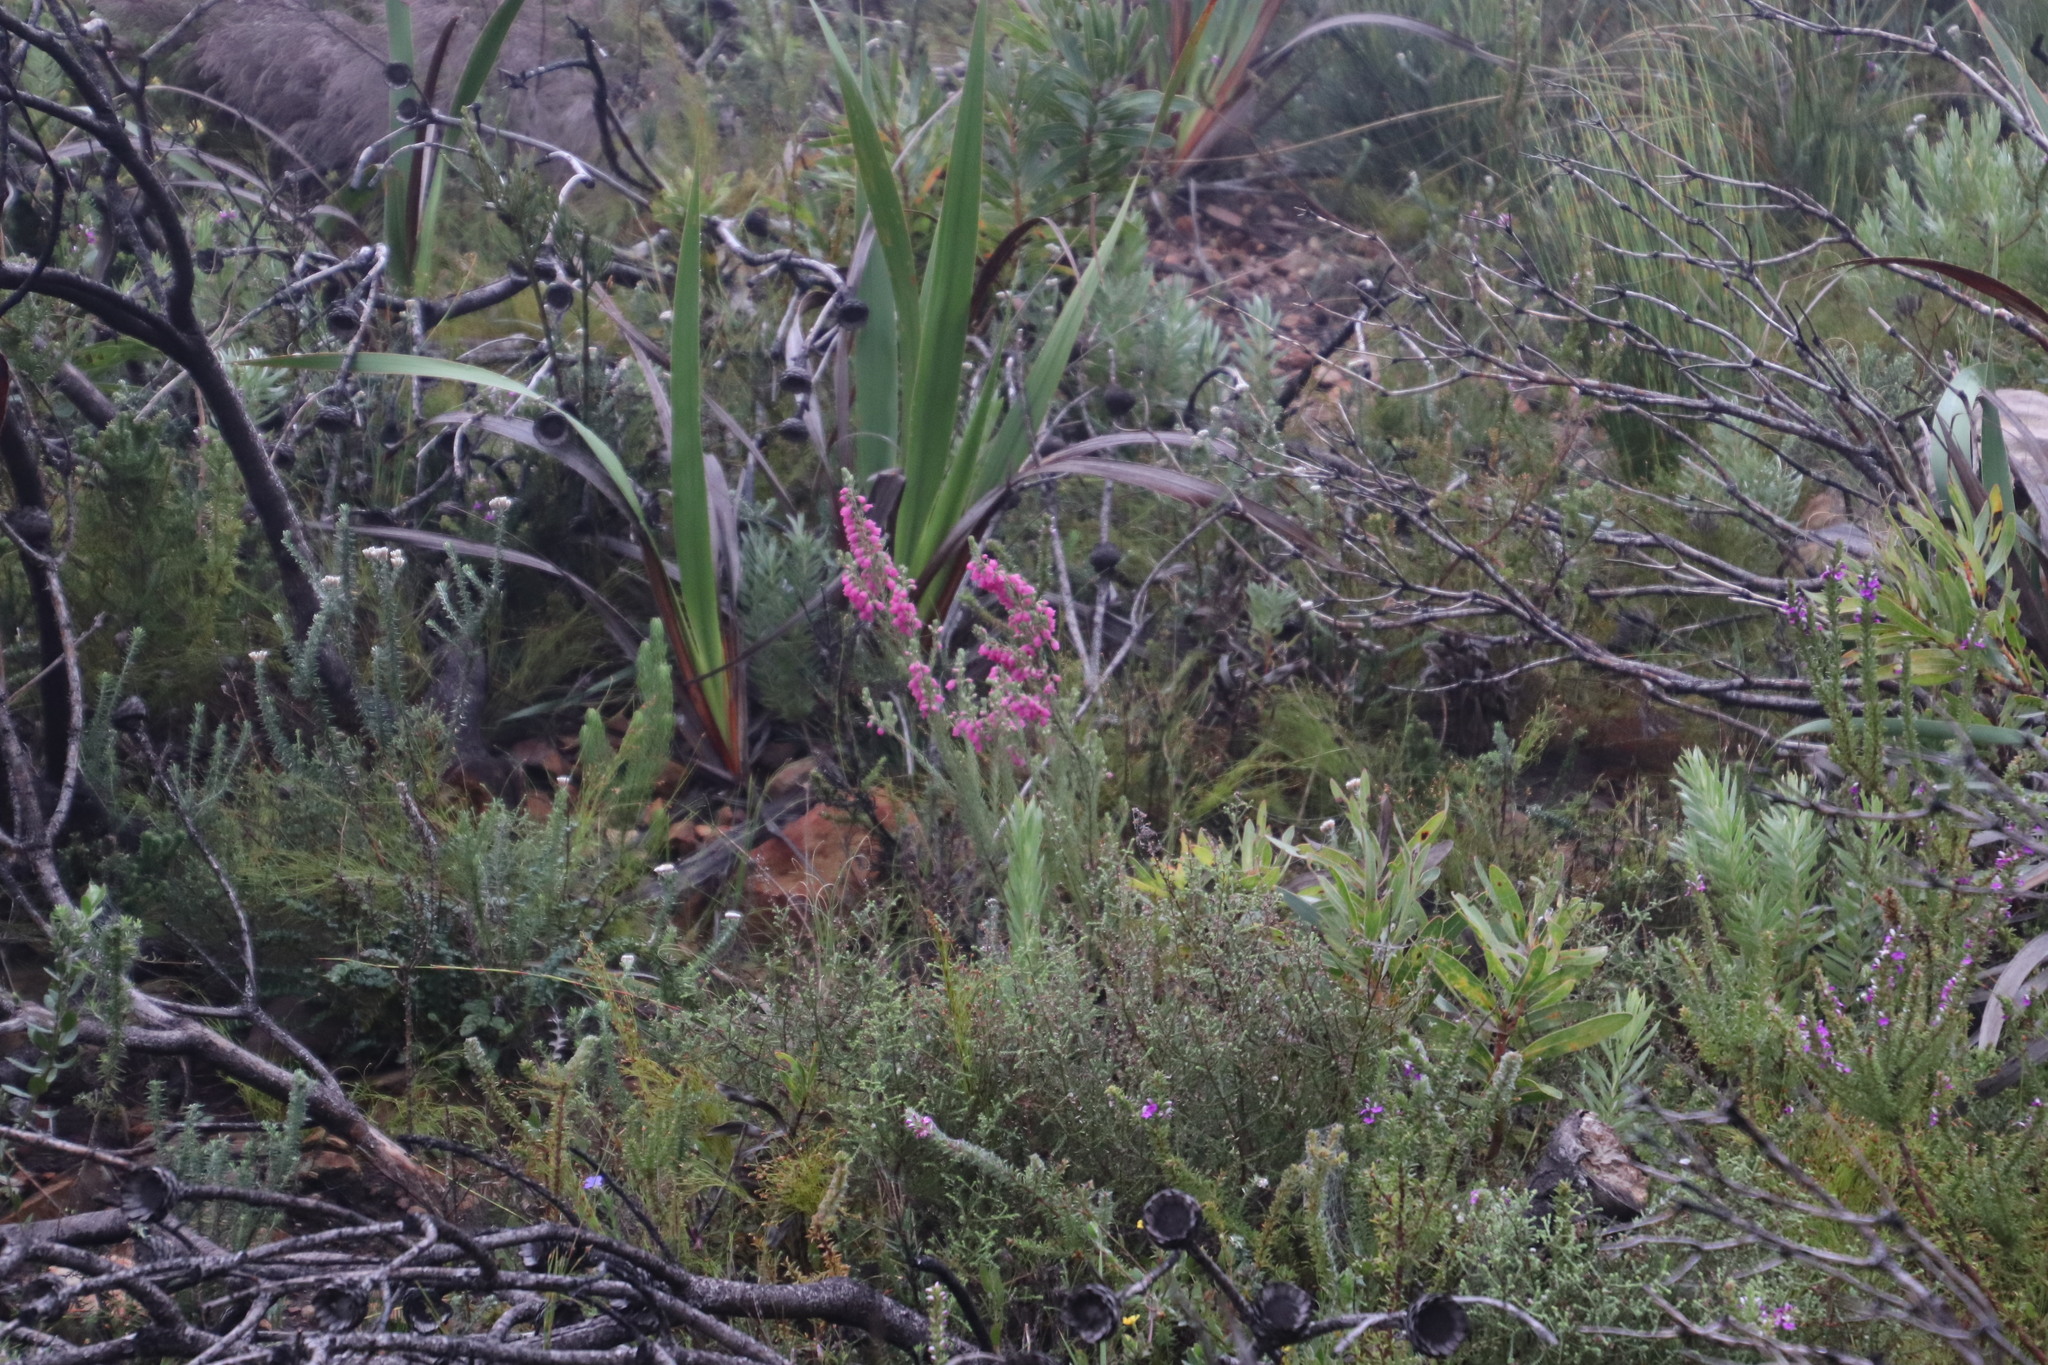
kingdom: Plantae
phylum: Tracheophyta
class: Magnoliopsida
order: Ericales
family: Ericaceae
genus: Erica
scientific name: Erica viscaria
